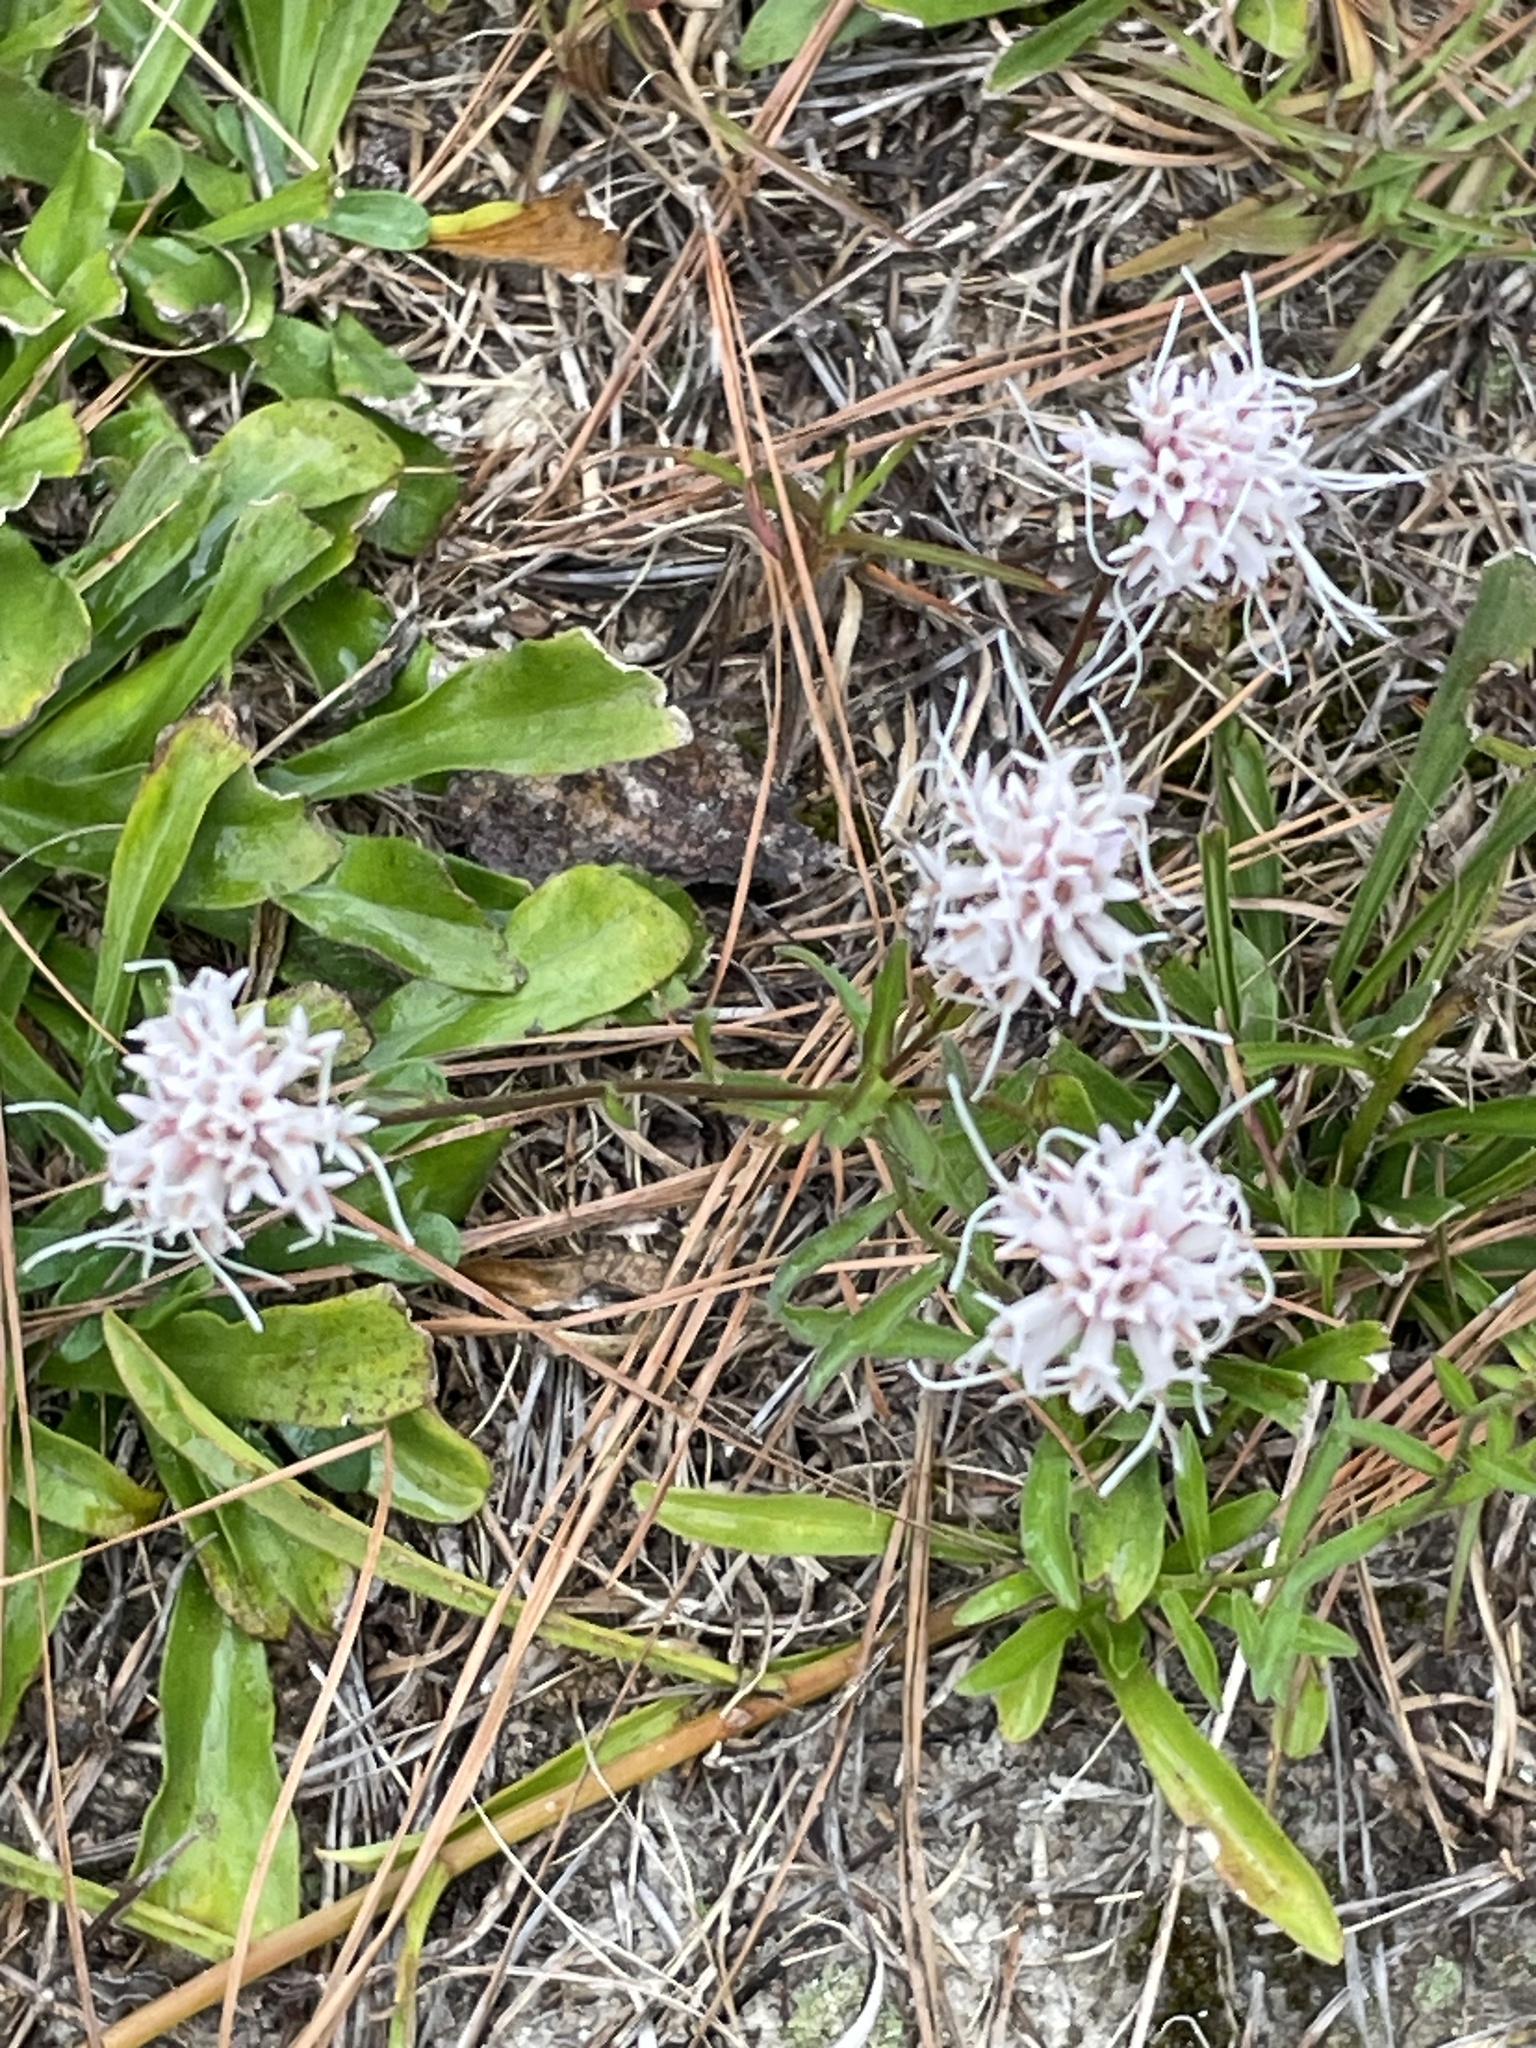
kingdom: Plantae
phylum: Tracheophyta
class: Magnoliopsida
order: Asterales
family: Asteraceae
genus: Carphephorus
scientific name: Carphephorus bellidifolius
